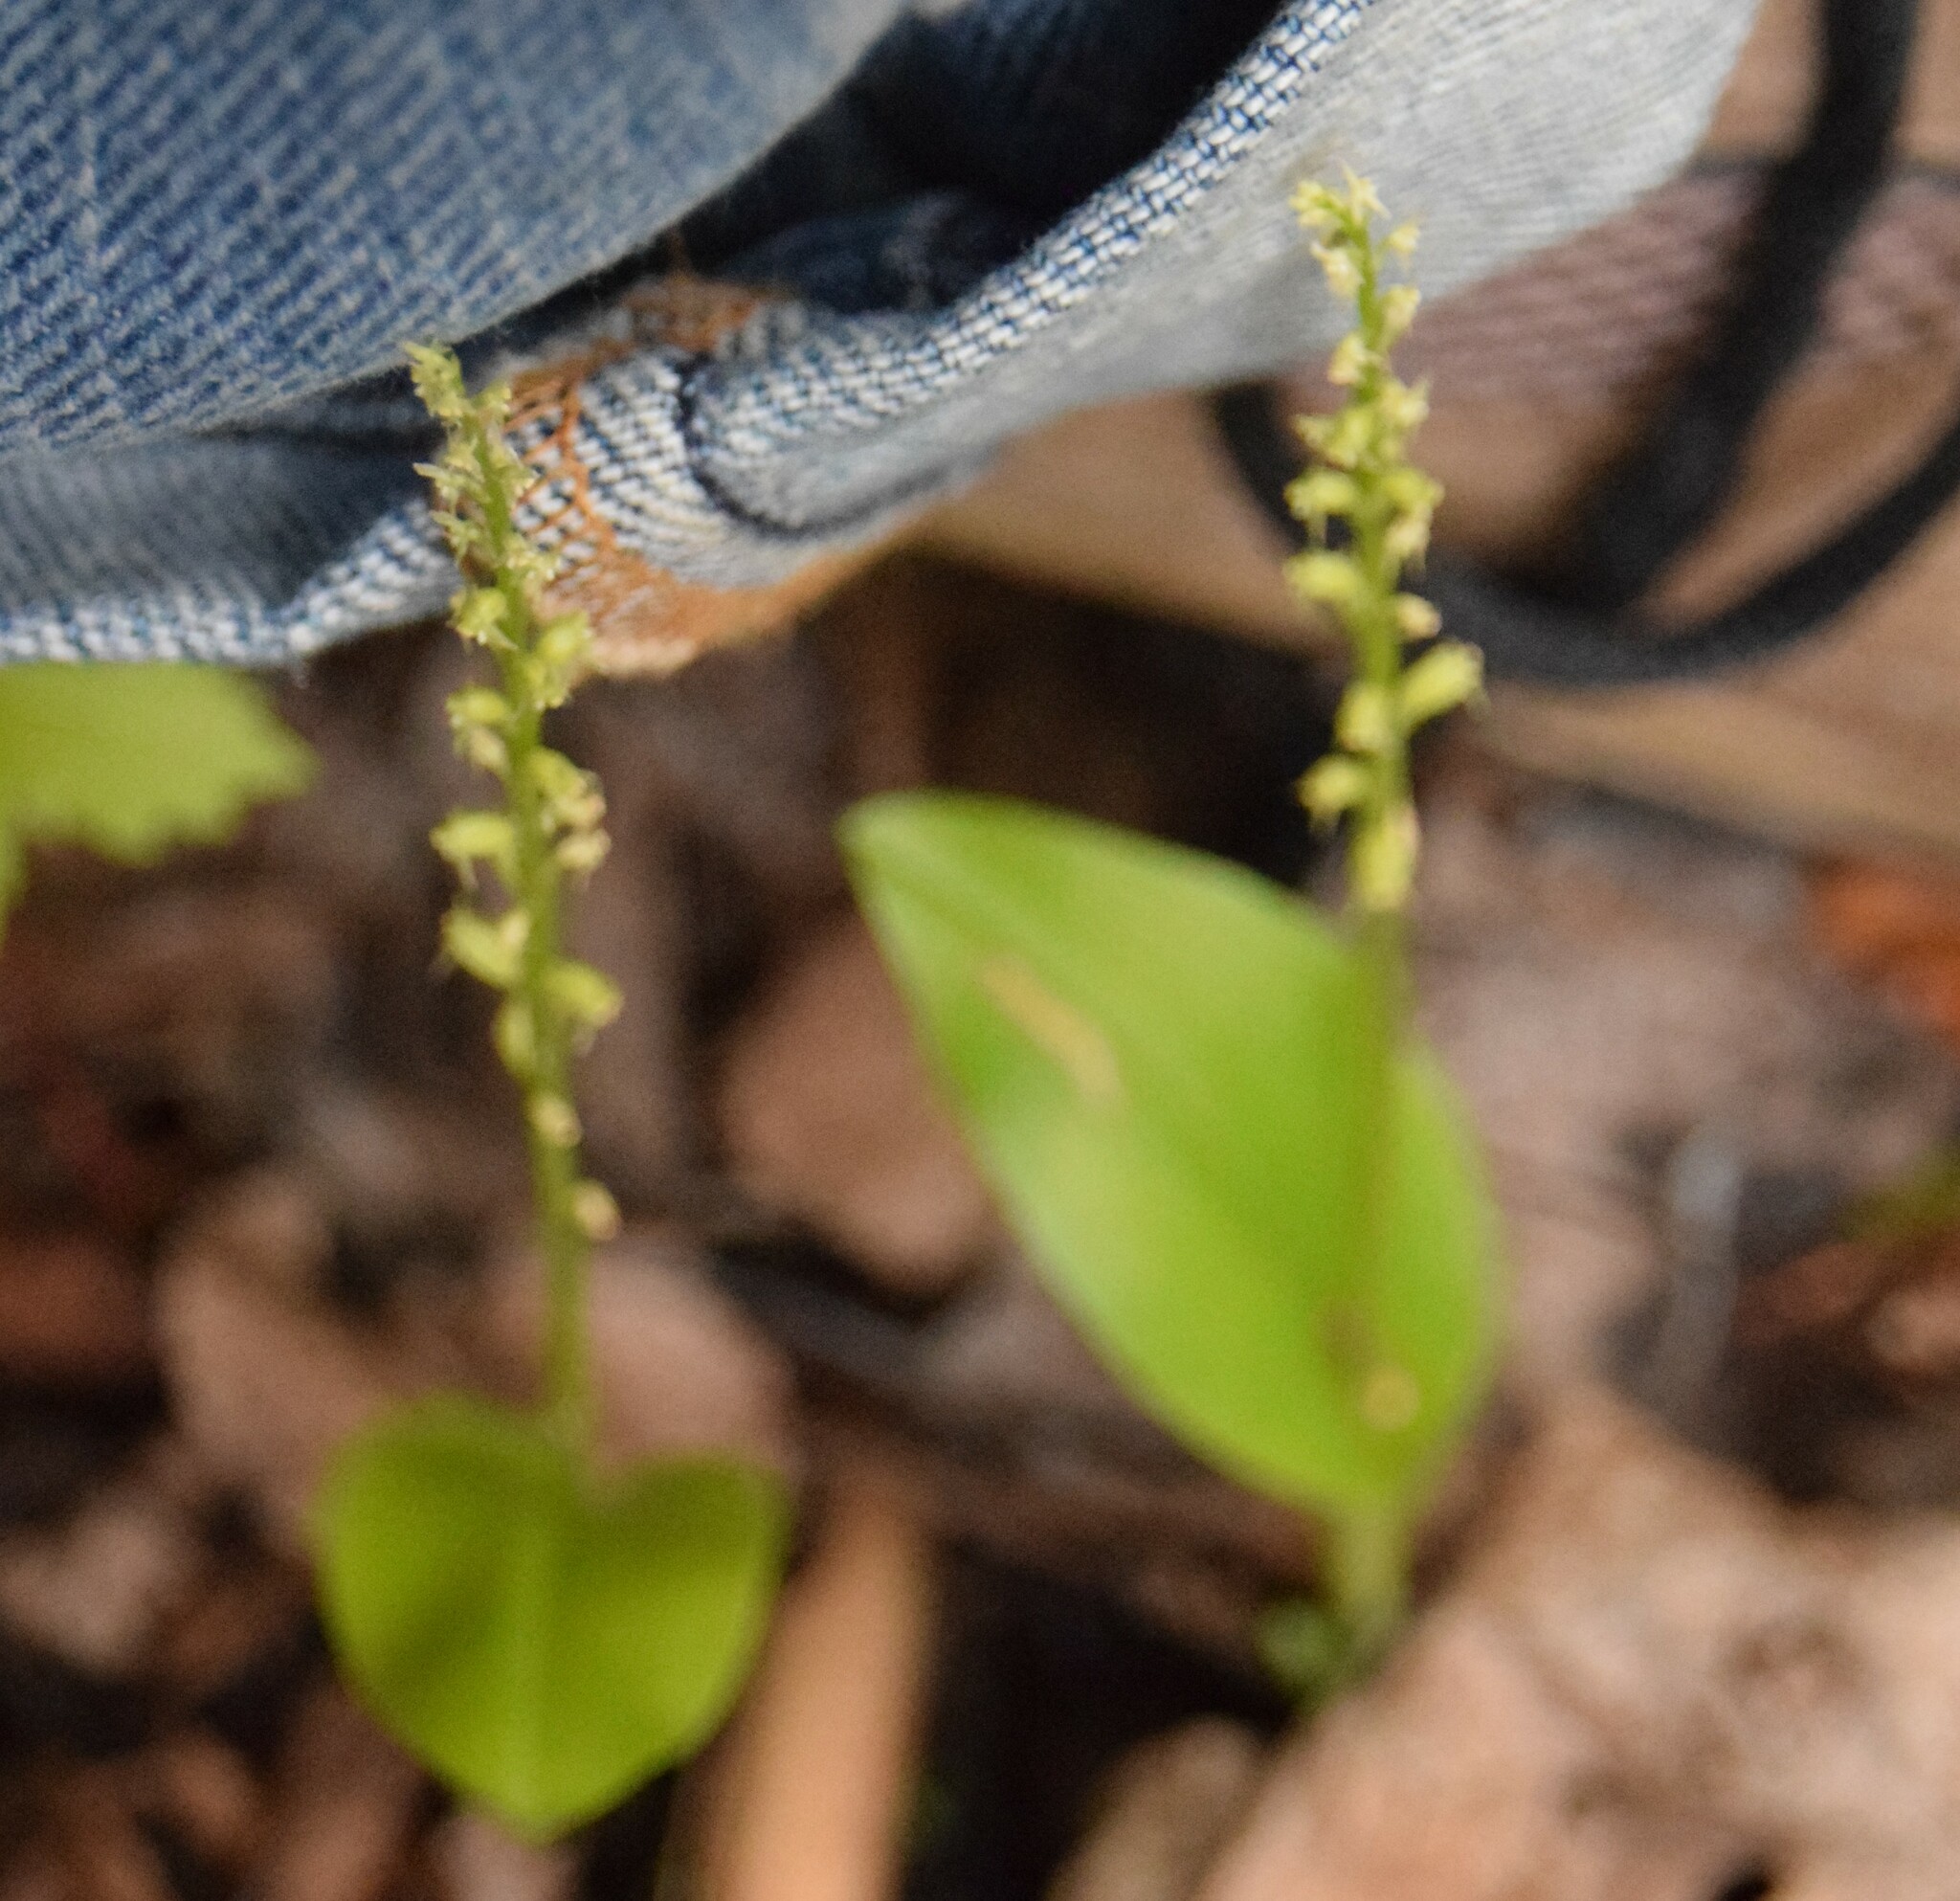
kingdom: Plantae
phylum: Tracheophyta
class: Liliopsida
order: Asparagales
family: Orchidaceae
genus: Malaxis
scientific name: Malaxis monophyllos
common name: White adder's-mouth
